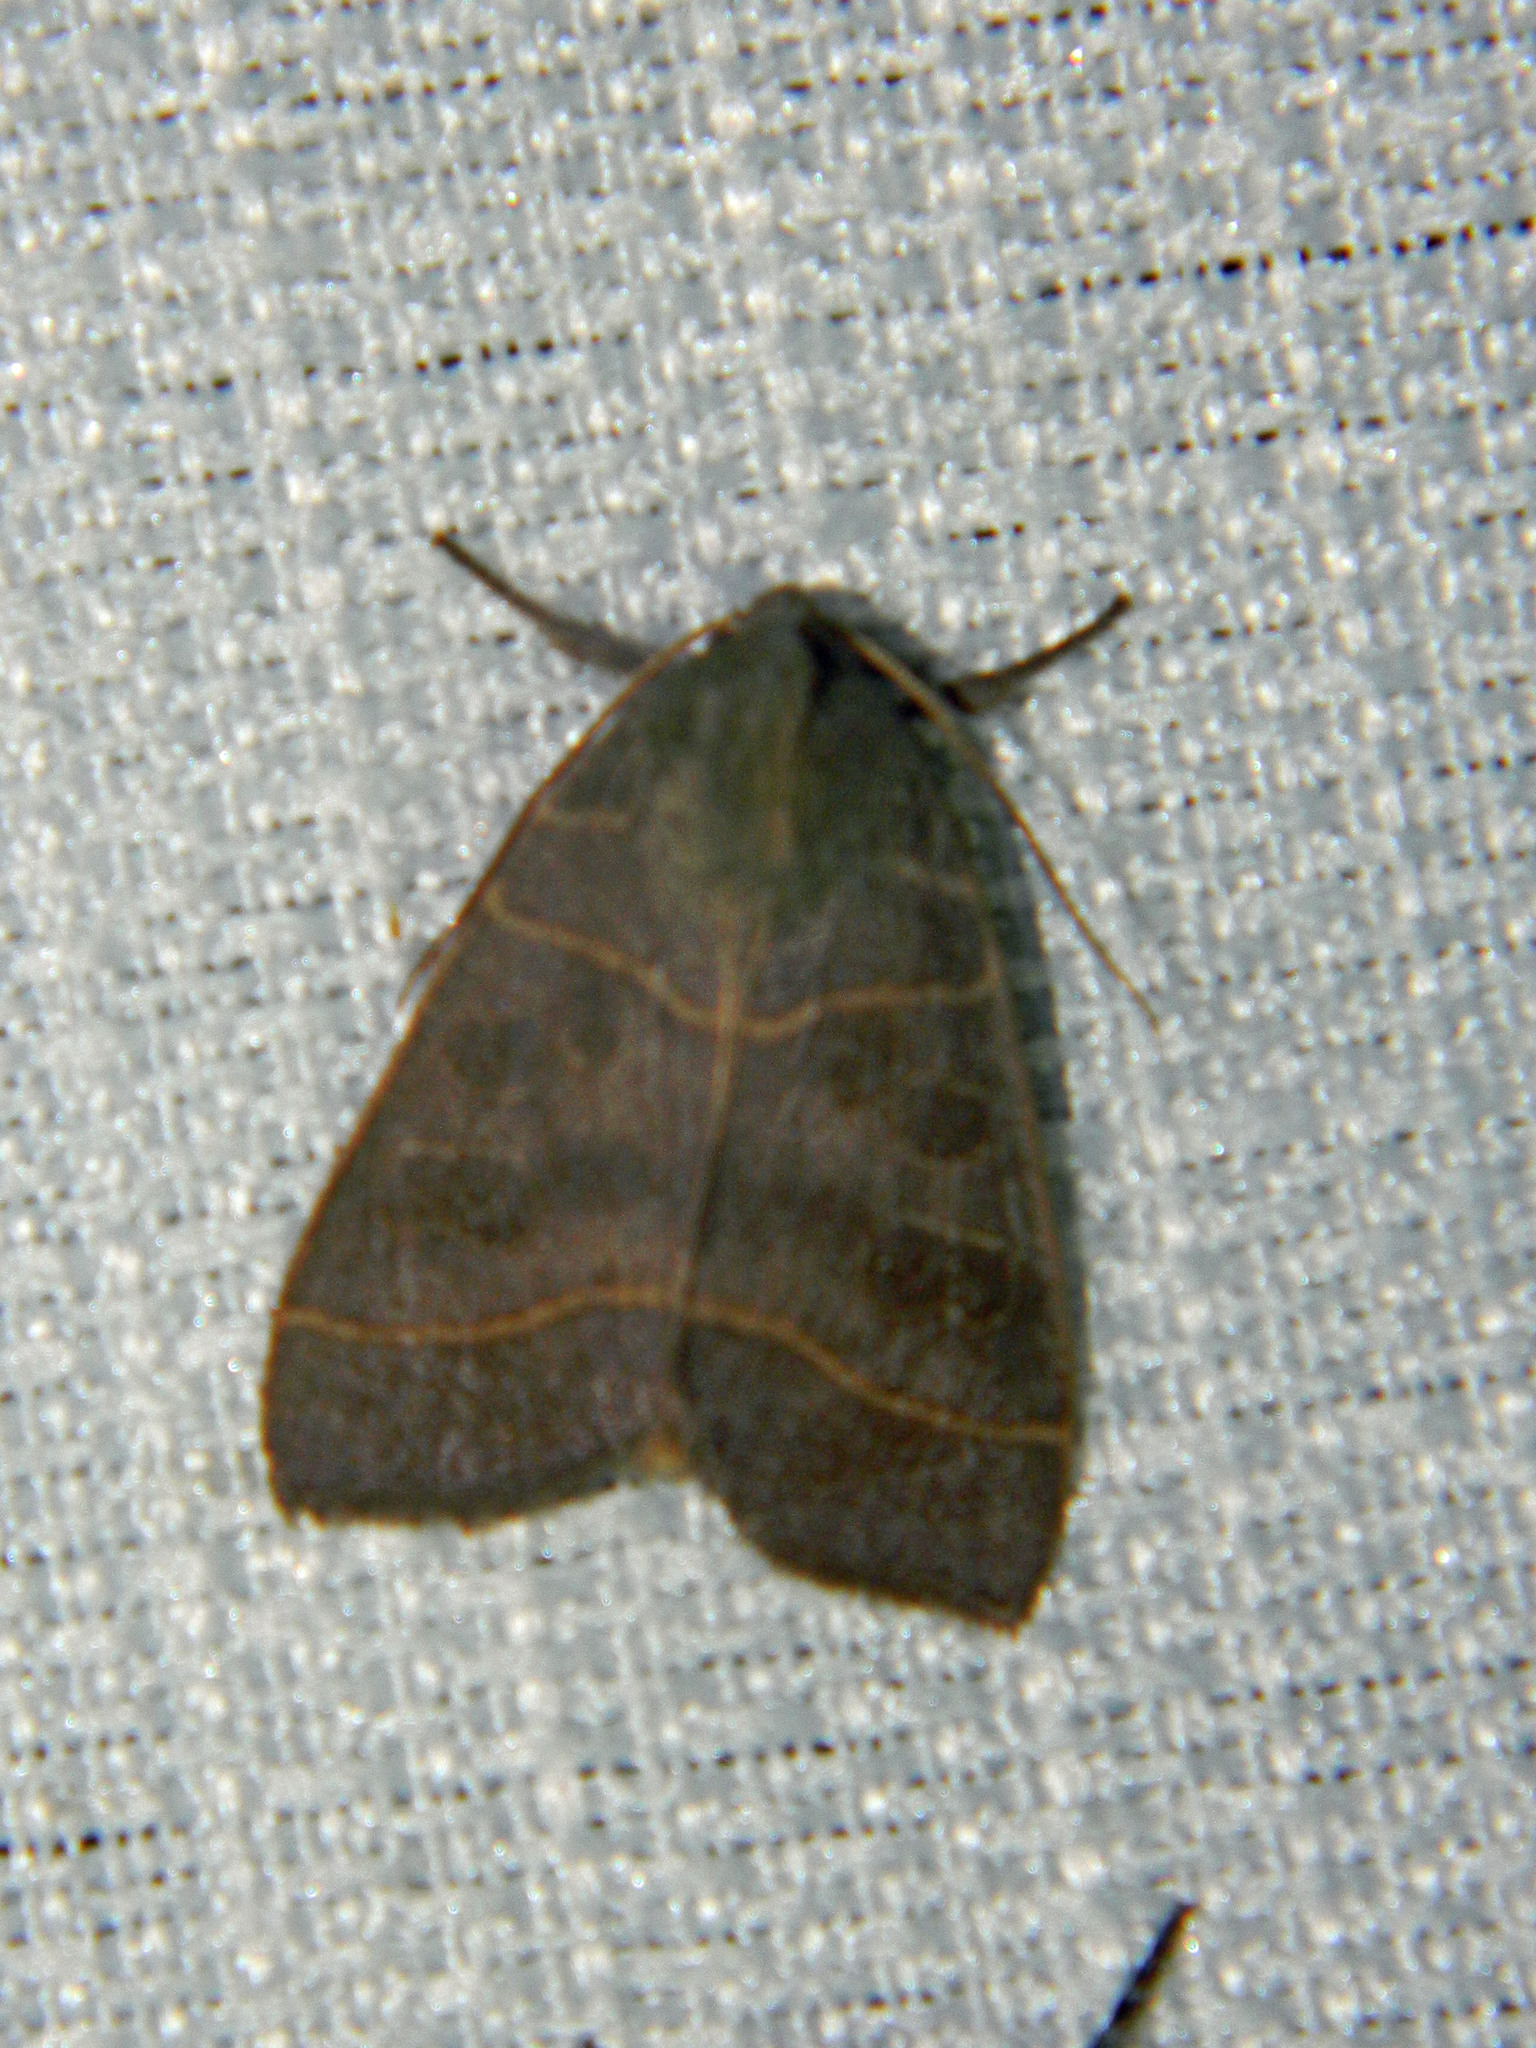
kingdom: Animalia
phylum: Arthropoda
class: Insecta
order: Lepidoptera
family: Noctuidae
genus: Ipimorpha
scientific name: Ipimorpha pleonectusa
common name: Even-lined sallow
